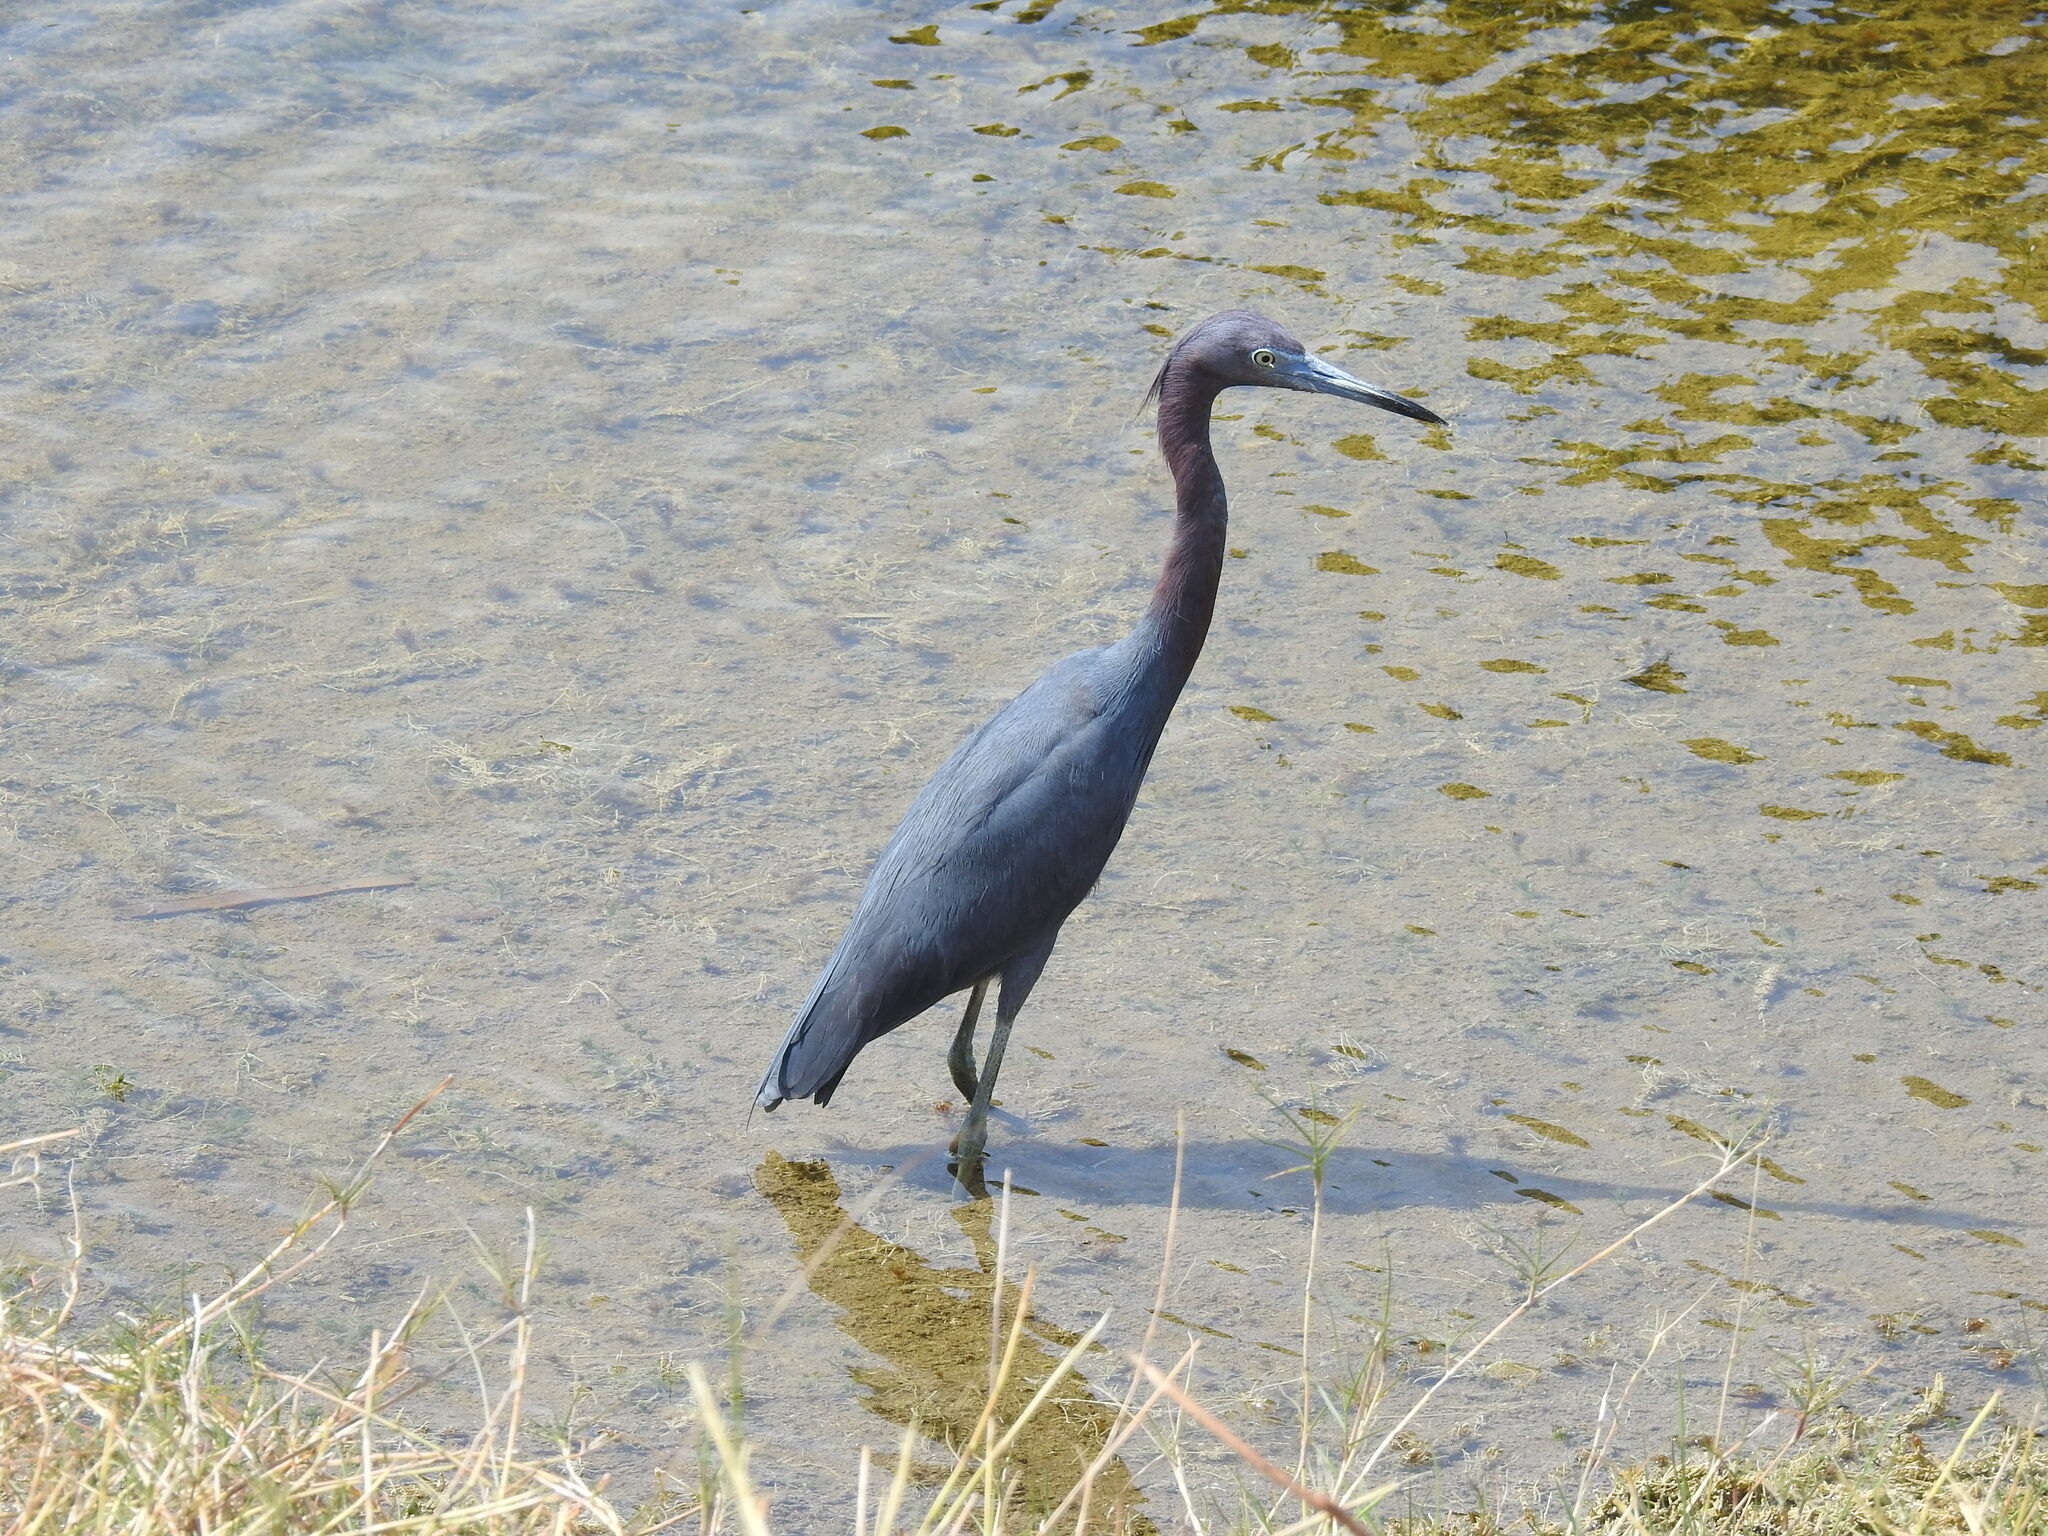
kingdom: Animalia
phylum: Chordata
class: Aves
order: Pelecaniformes
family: Ardeidae
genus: Egretta
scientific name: Egretta caerulea
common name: Little blue heron
